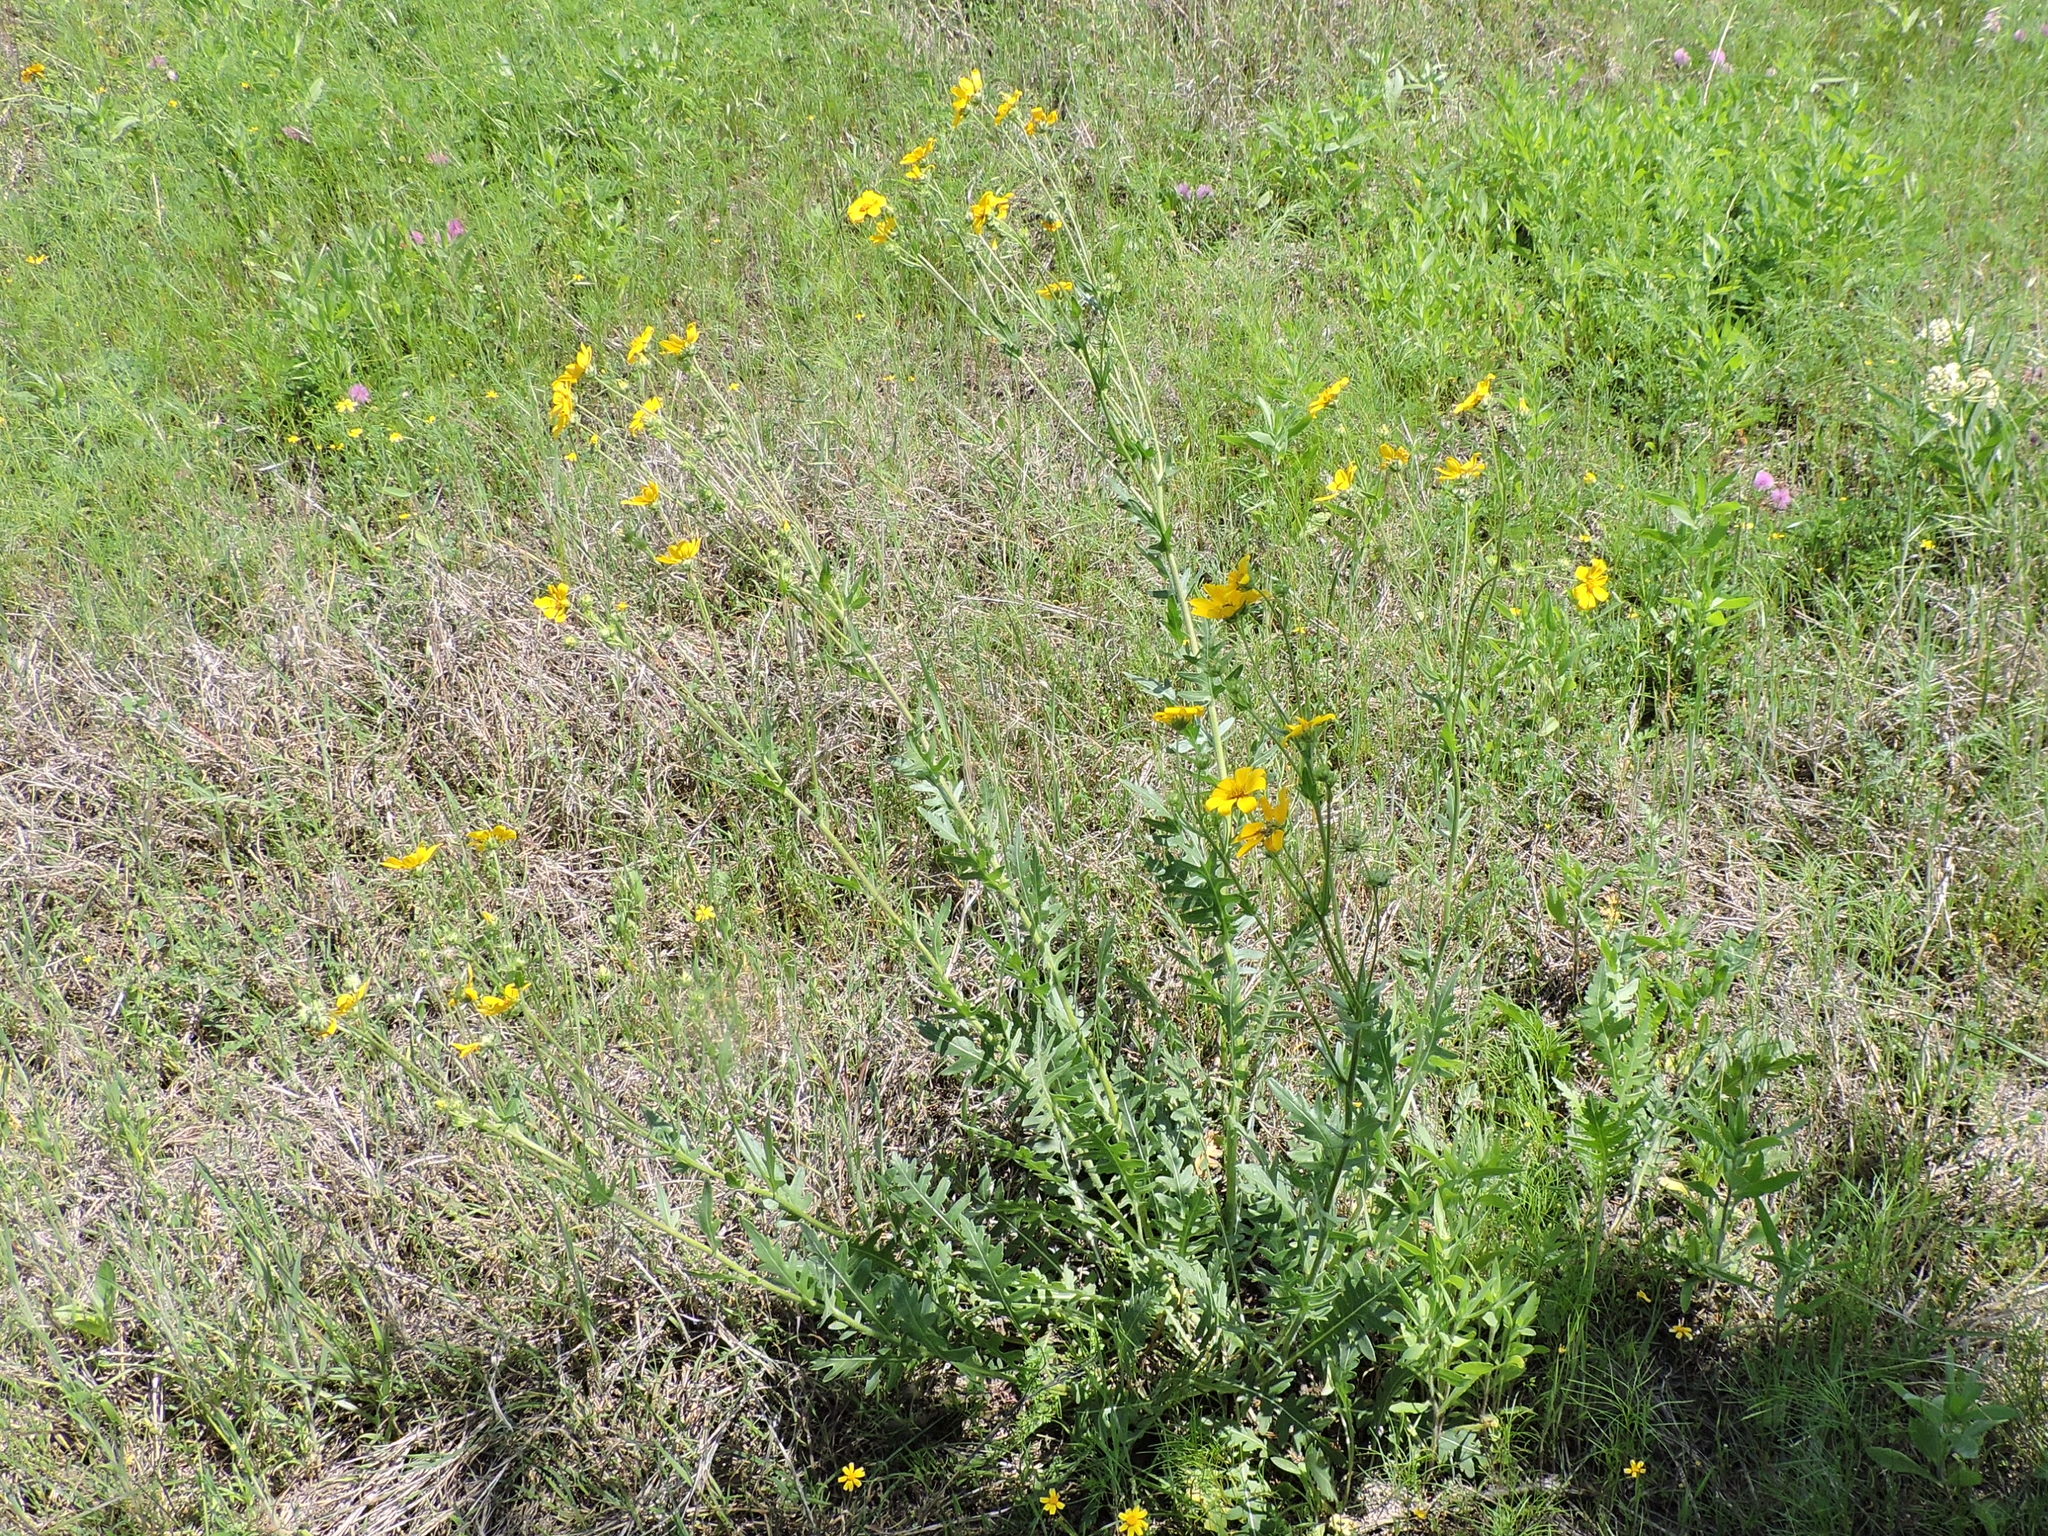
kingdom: Plantae
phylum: Tracheophyta
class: Magnoliopsida
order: Asterales
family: Asteraceae
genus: Engelmannia
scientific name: Engelmannia peristenia
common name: Engelmann's daisy
